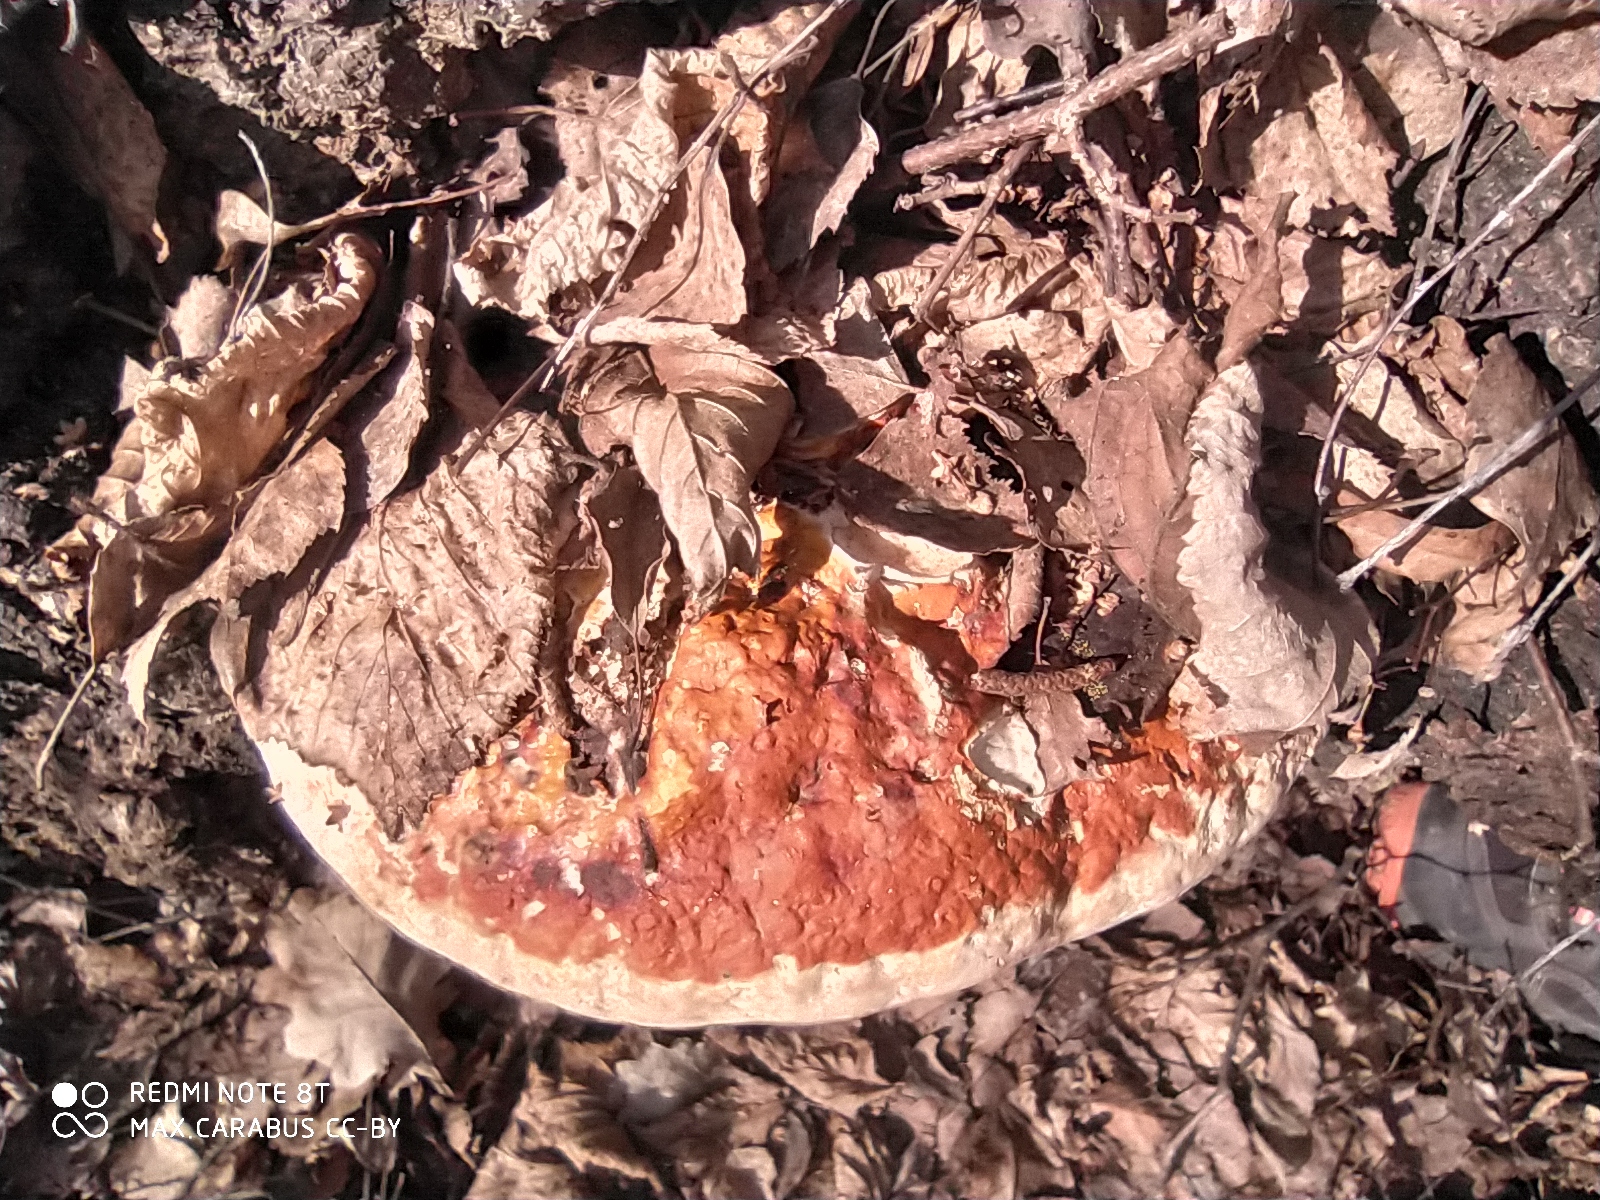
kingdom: Fungi
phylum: Basidiomycota
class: Agaricomycetes
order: Polyporales
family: Fomitopsidaceae
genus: Fomitopsis
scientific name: Fomitopsis pinicola
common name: Red-belted bracket
